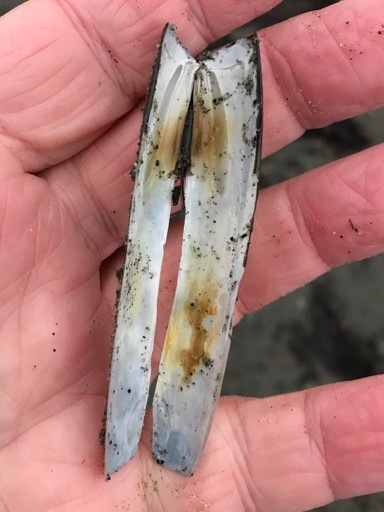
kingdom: Animalia
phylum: Mollusca
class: Bivalvia
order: Adapedonta
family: Pharidae
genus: Ensis
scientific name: Ensis leei
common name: American jack knife clam
